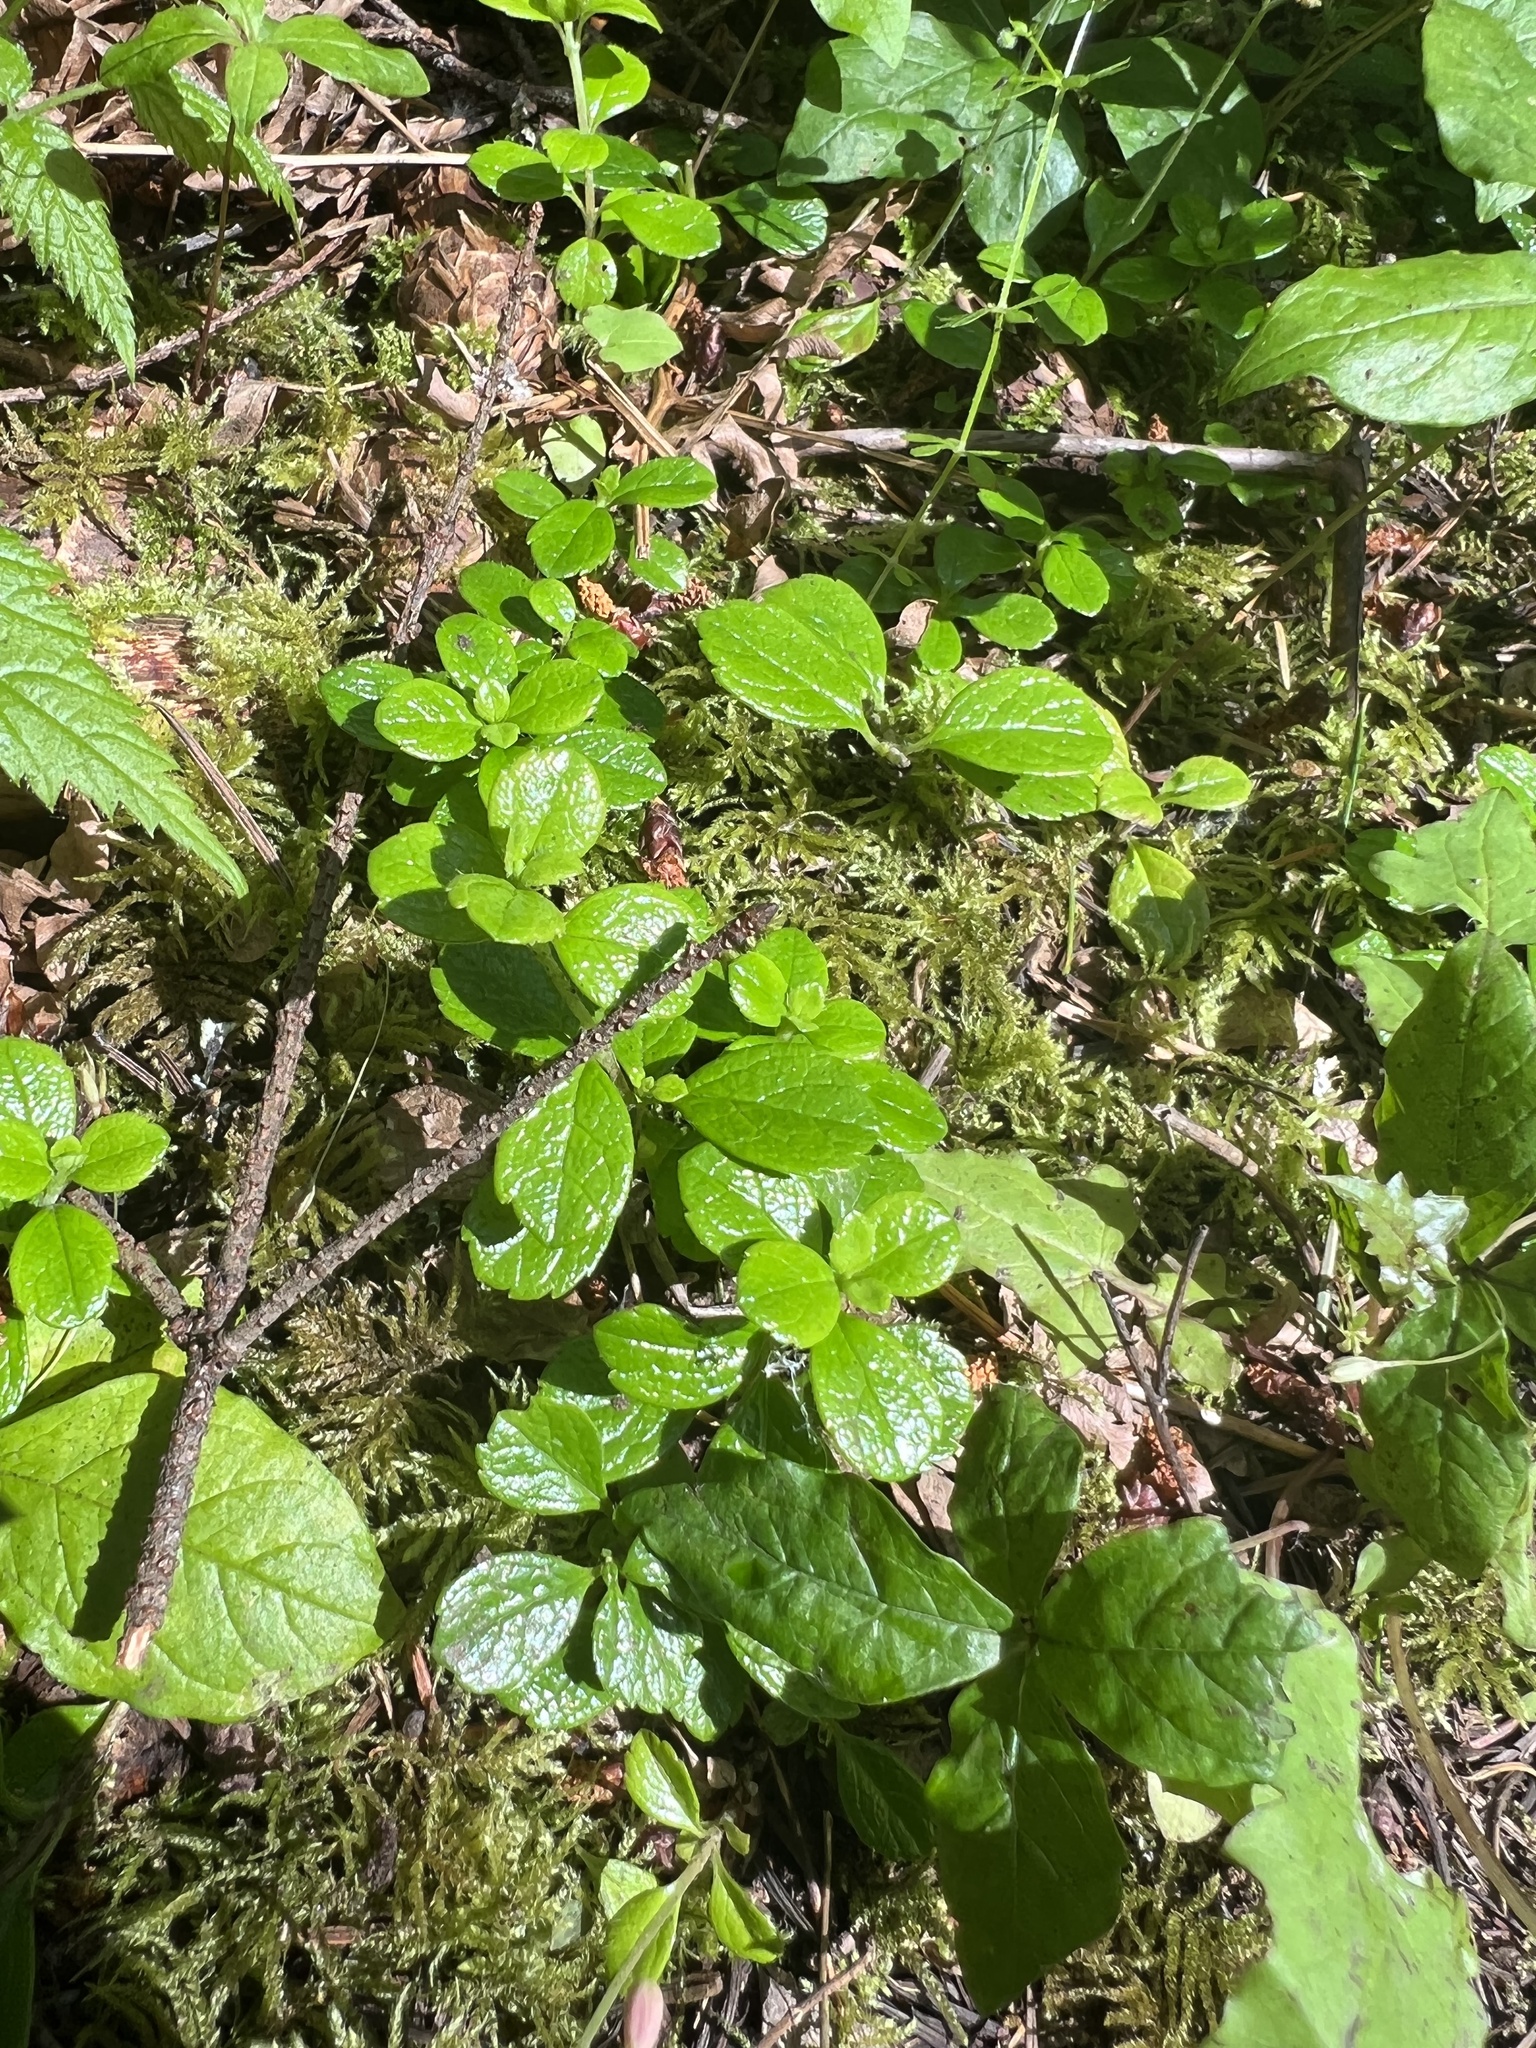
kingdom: Plantae
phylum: Tracheophyta
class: Magnoliopsida
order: Dipsacales
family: Caprifoliaceae
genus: Linnaea
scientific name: Linnaea borealis
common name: Twinflower
